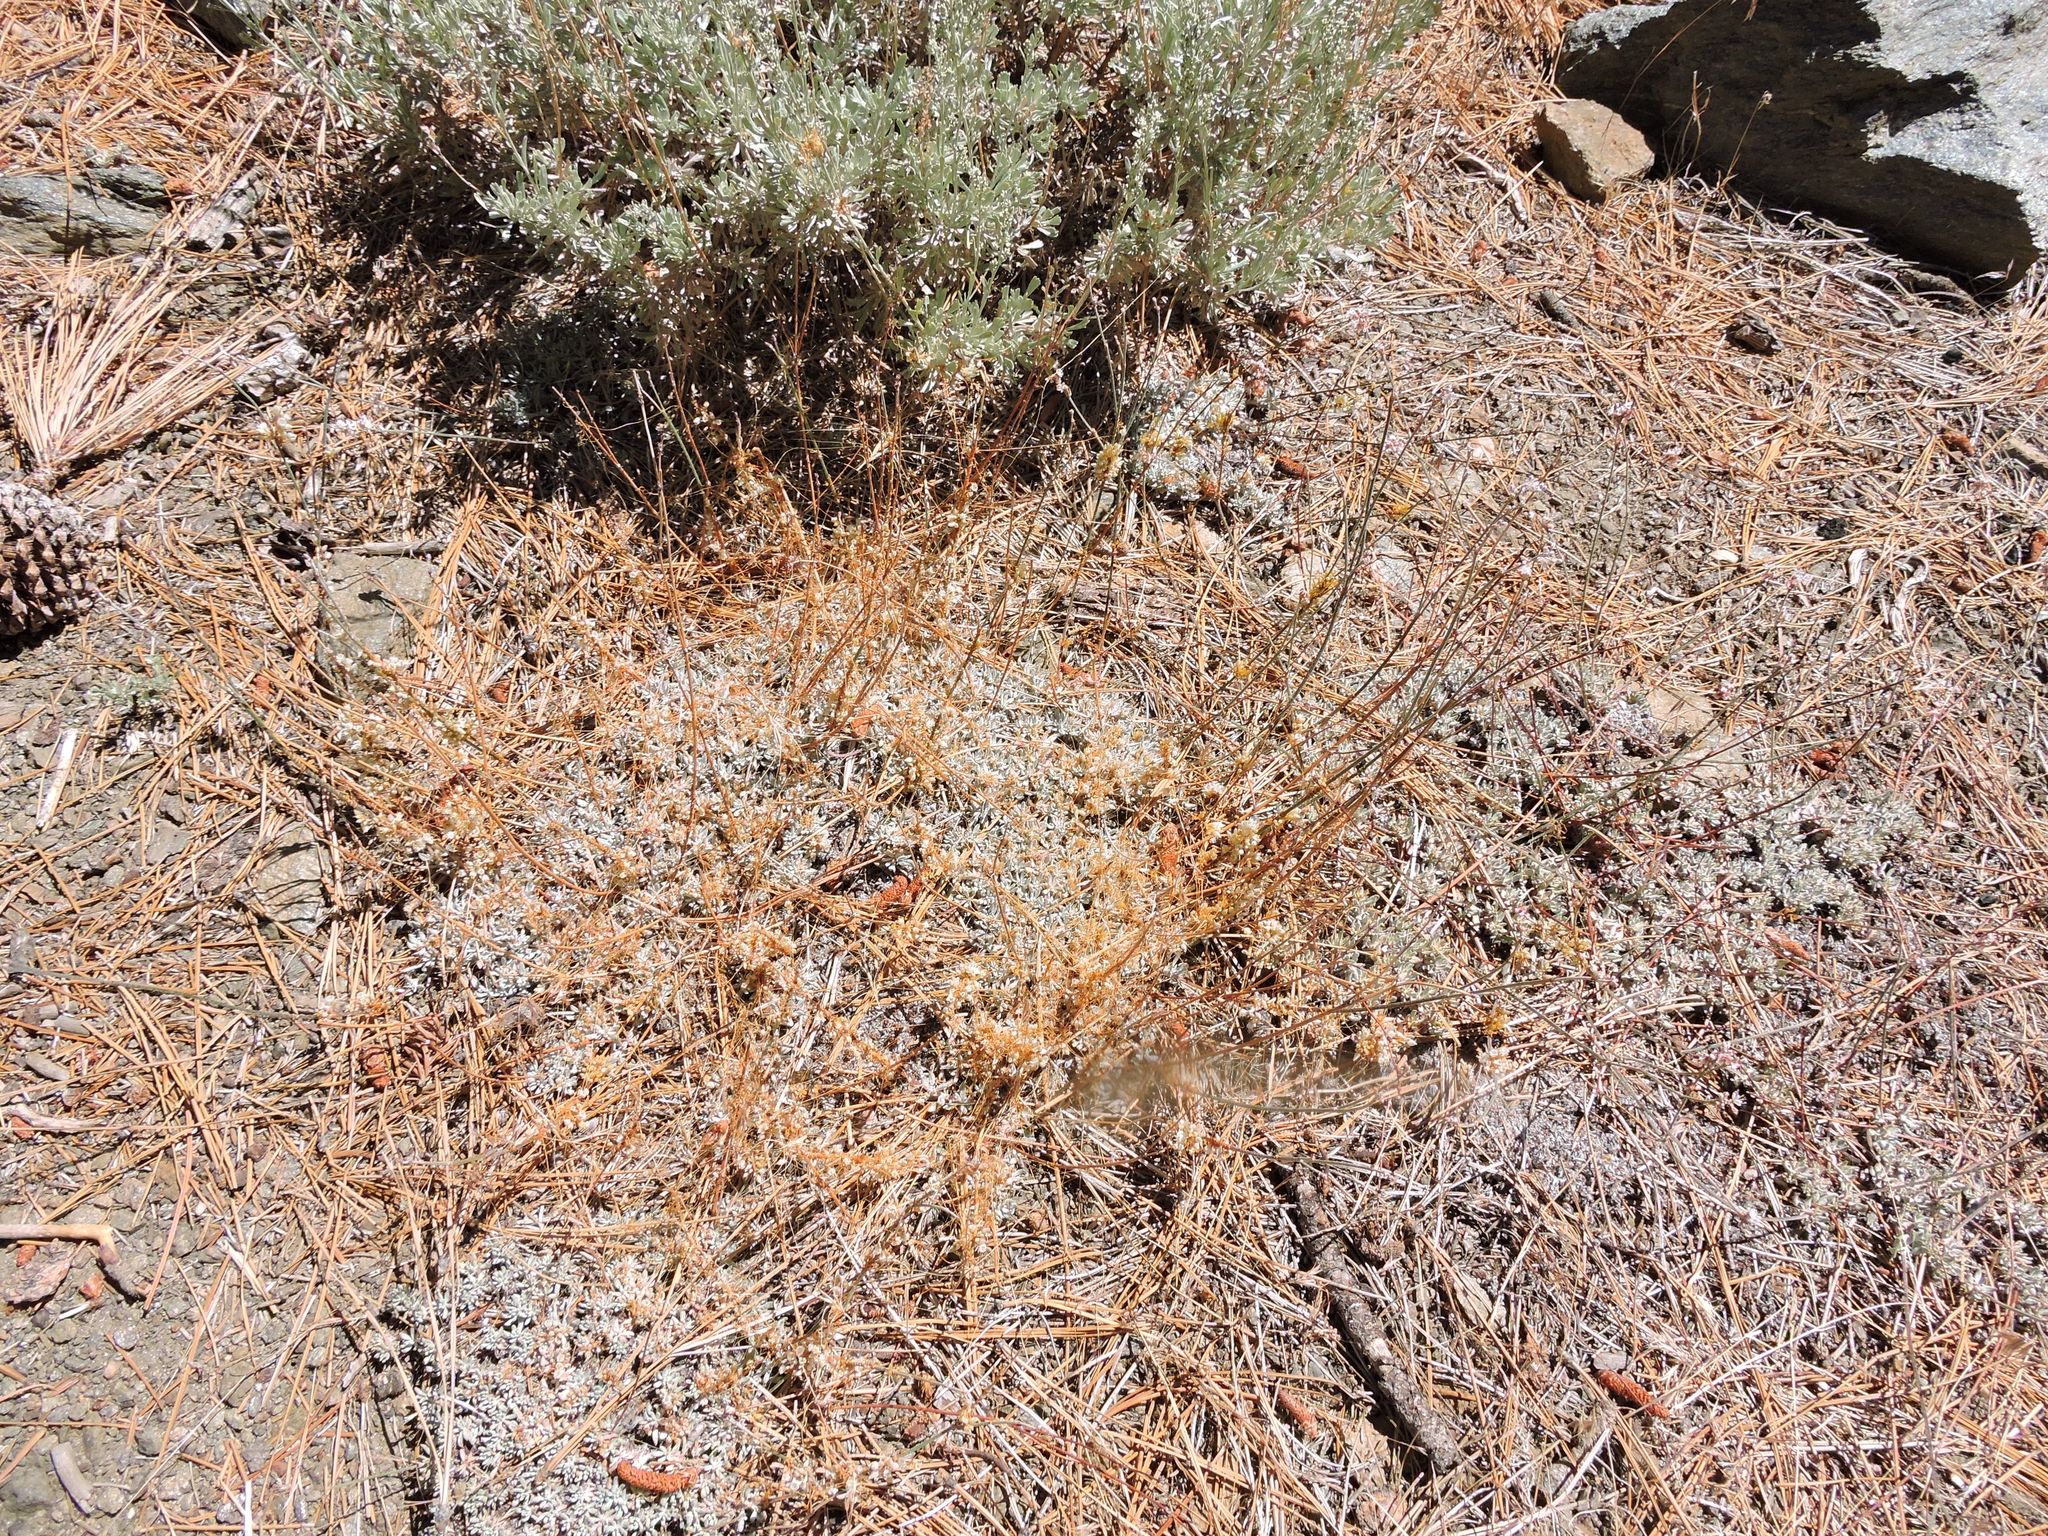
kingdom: Plantae
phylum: Tracheophyta
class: Magnoliopsida
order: Caryophyllales
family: Polygonaceae
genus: Eriogonum
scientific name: Eriogonum wrightii
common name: Bastard-sage
